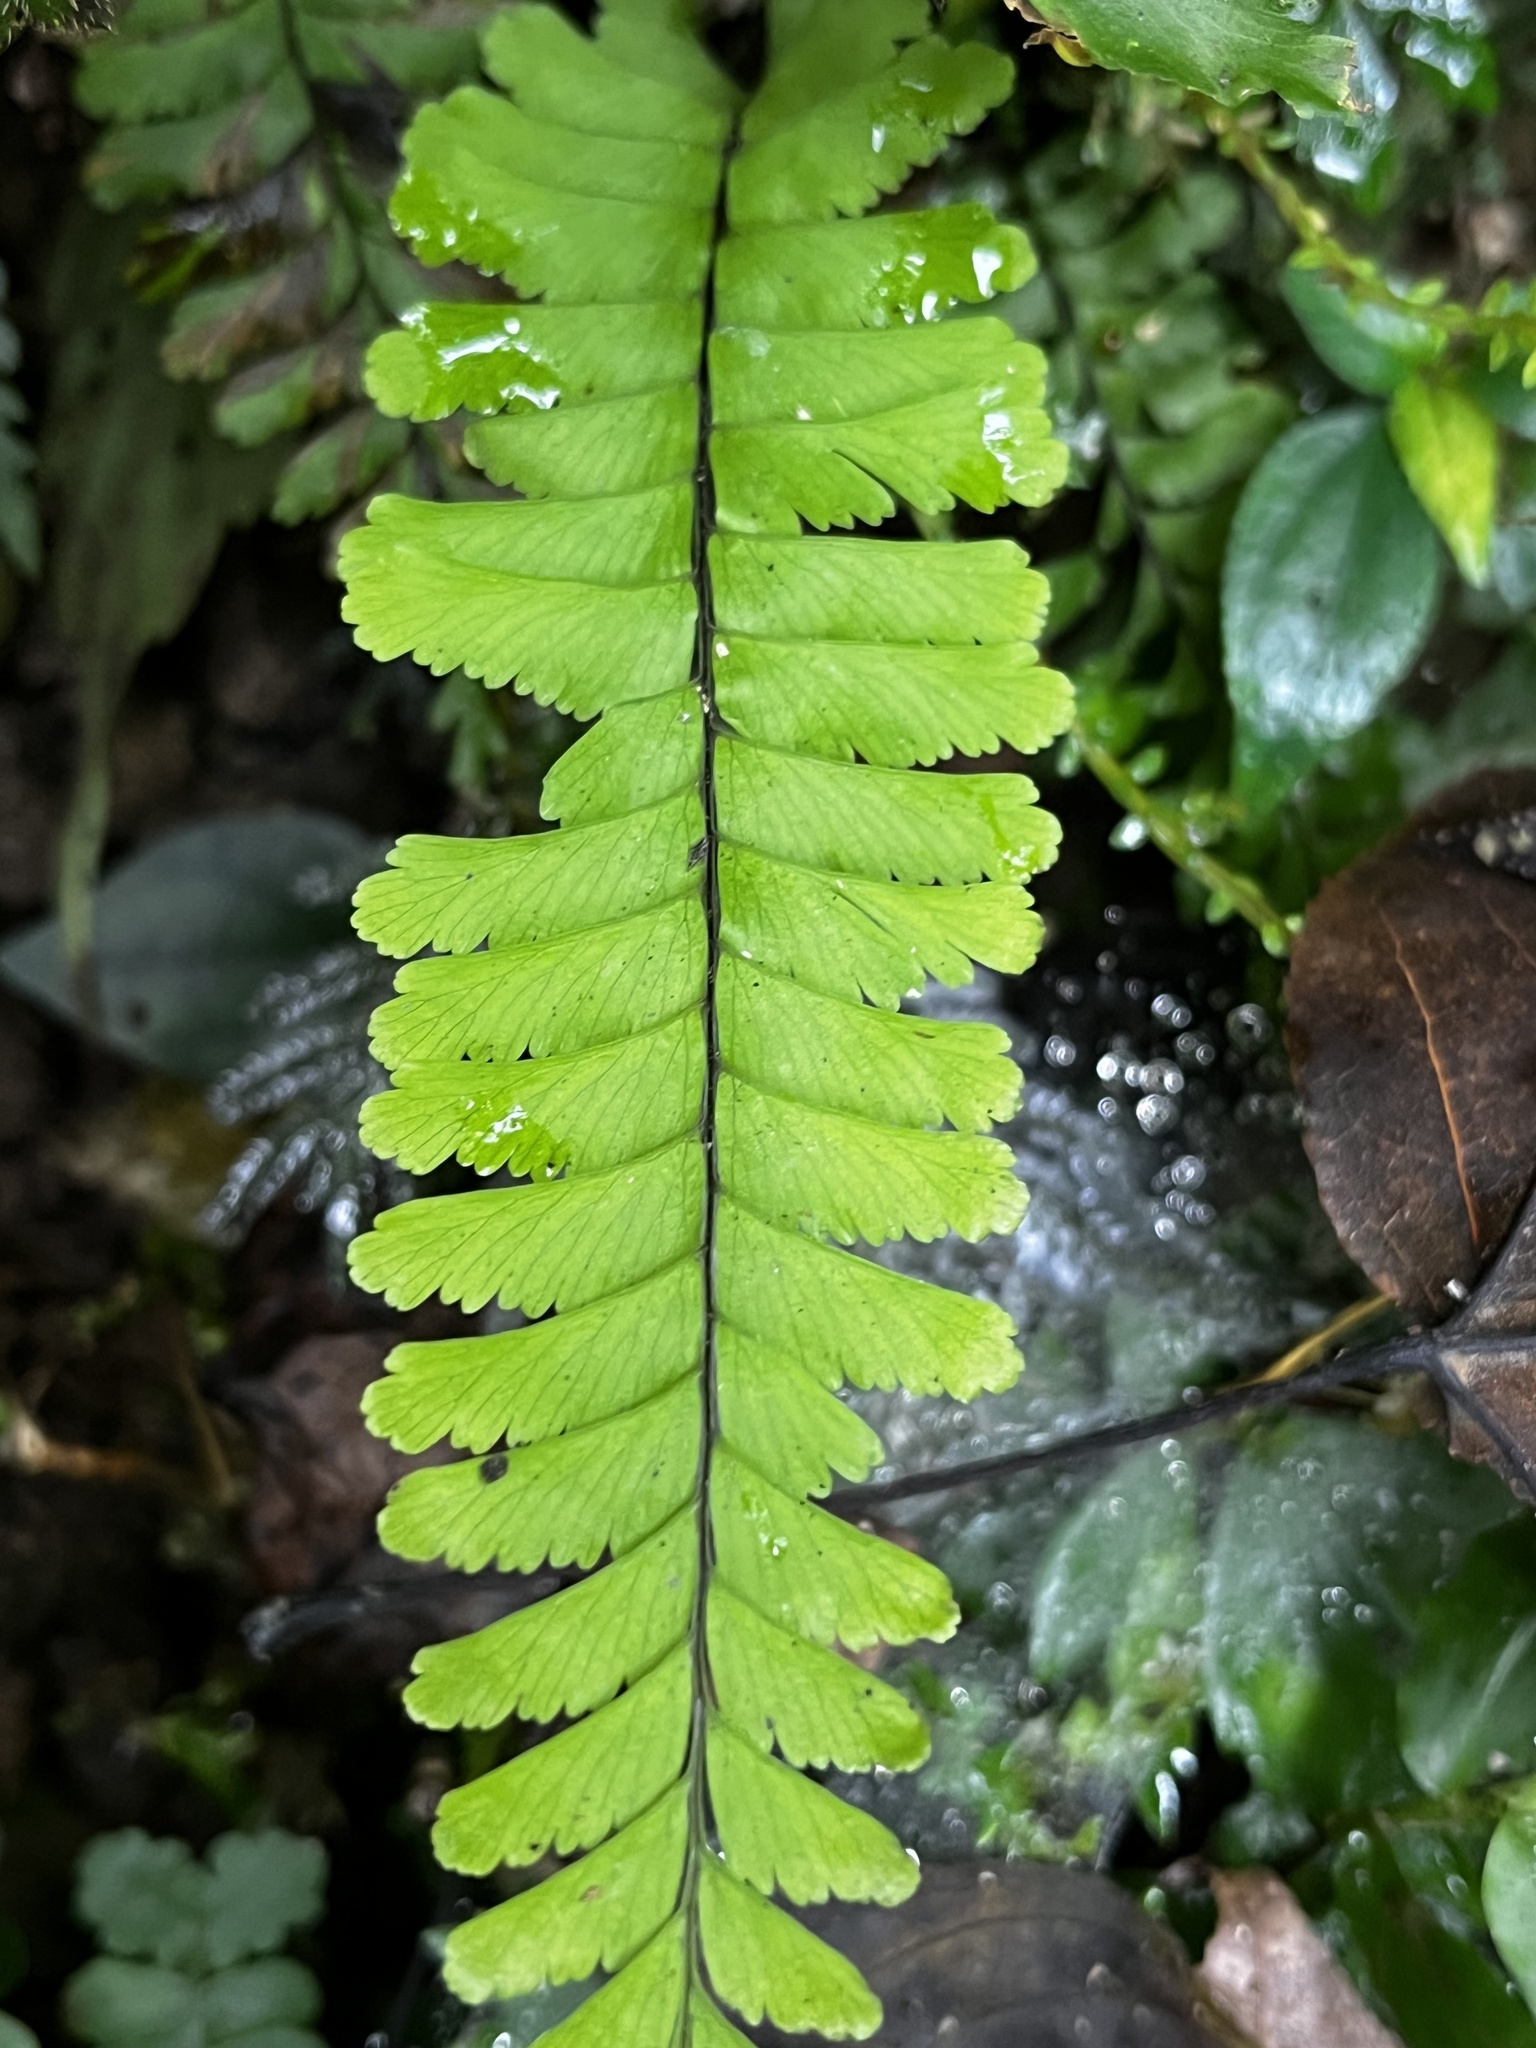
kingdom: Plantae
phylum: Tracheophyta
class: Polypodiopsida
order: Polypodiales
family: Aspleniaceae
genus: Hymenasplenium
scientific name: Hymenasplenium cheilosorum
